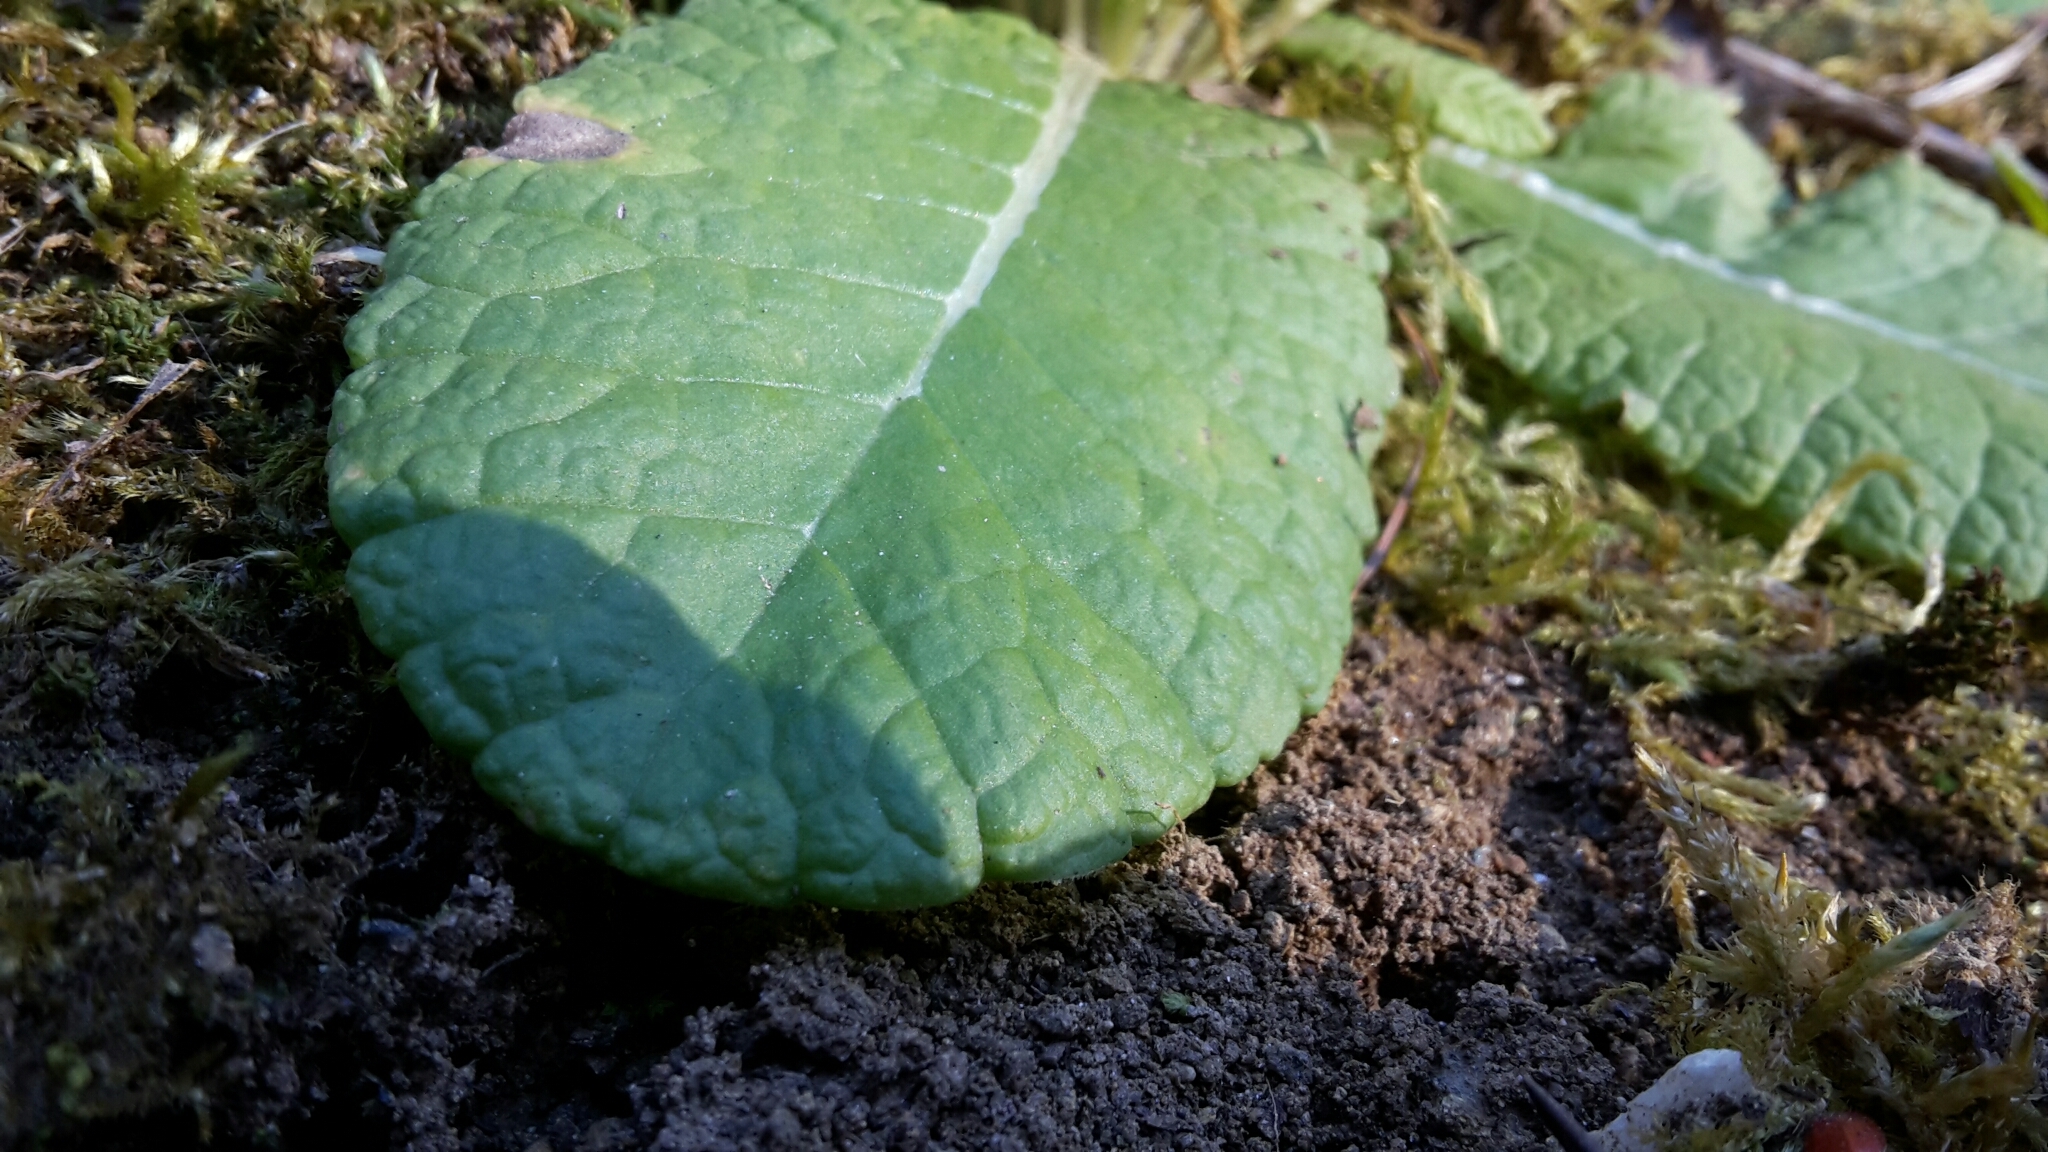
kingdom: Plantae
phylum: Tracheophyta
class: Magnoliopsida
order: Ericales
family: Primulaceae
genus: Primula
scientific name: Primula vulgaris
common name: Primrose
